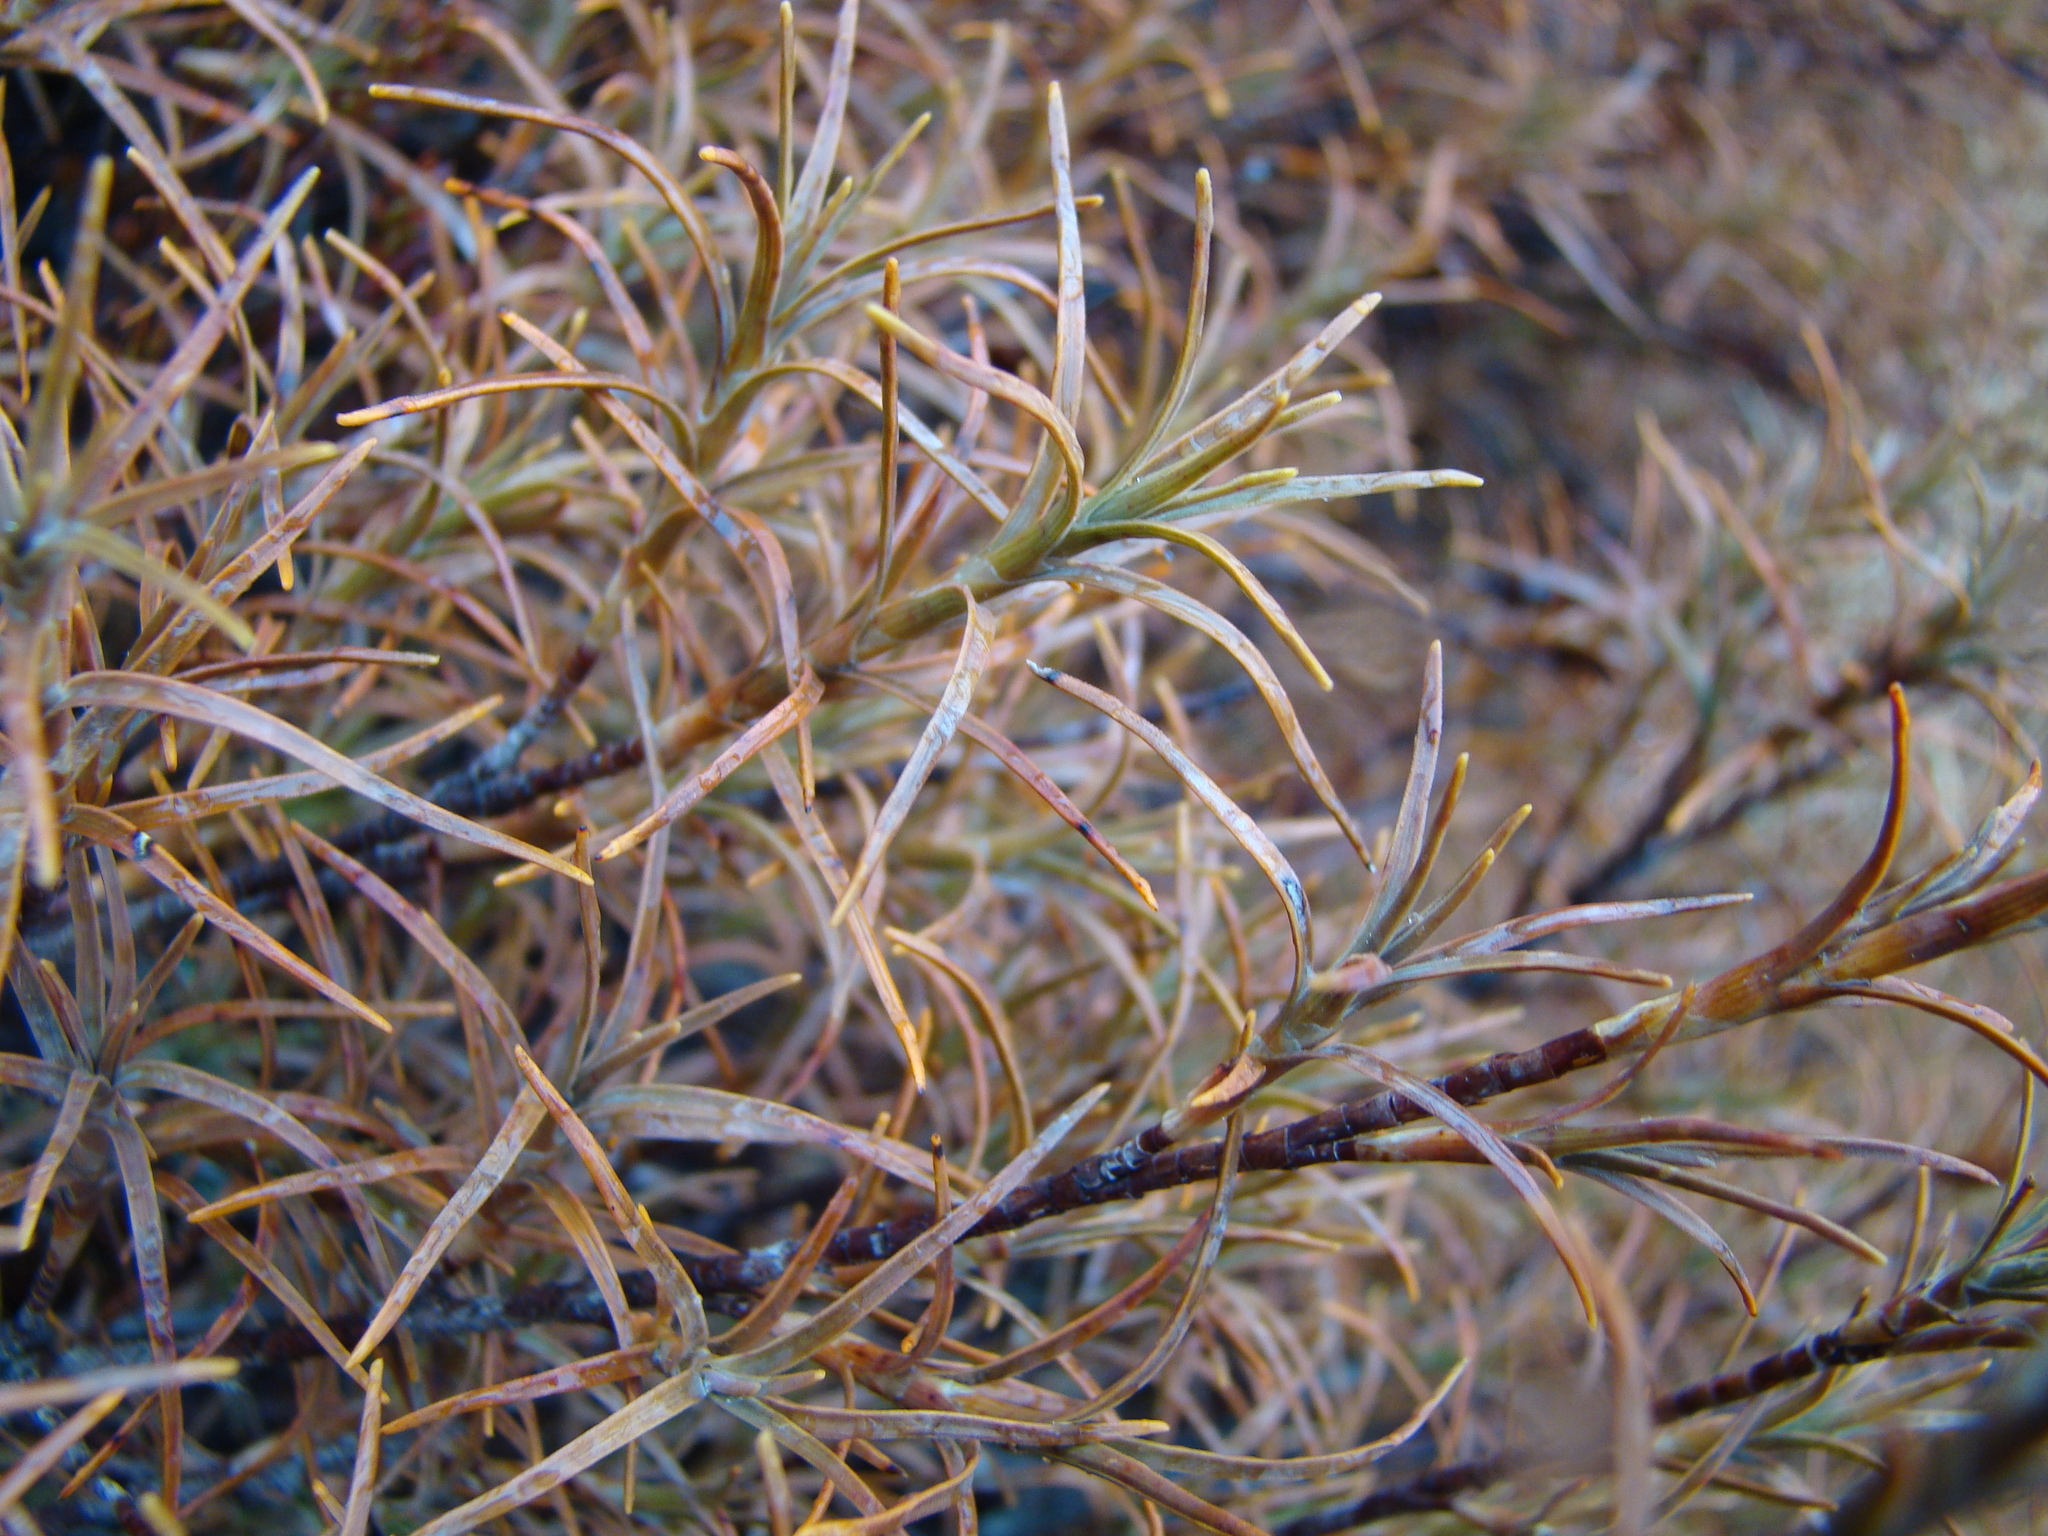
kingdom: Plantae
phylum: Tracheophyta
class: Magnoliopsida
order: Ericales
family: Ericaceae
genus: Dracophyllum
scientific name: Dracophyllum recurvum
